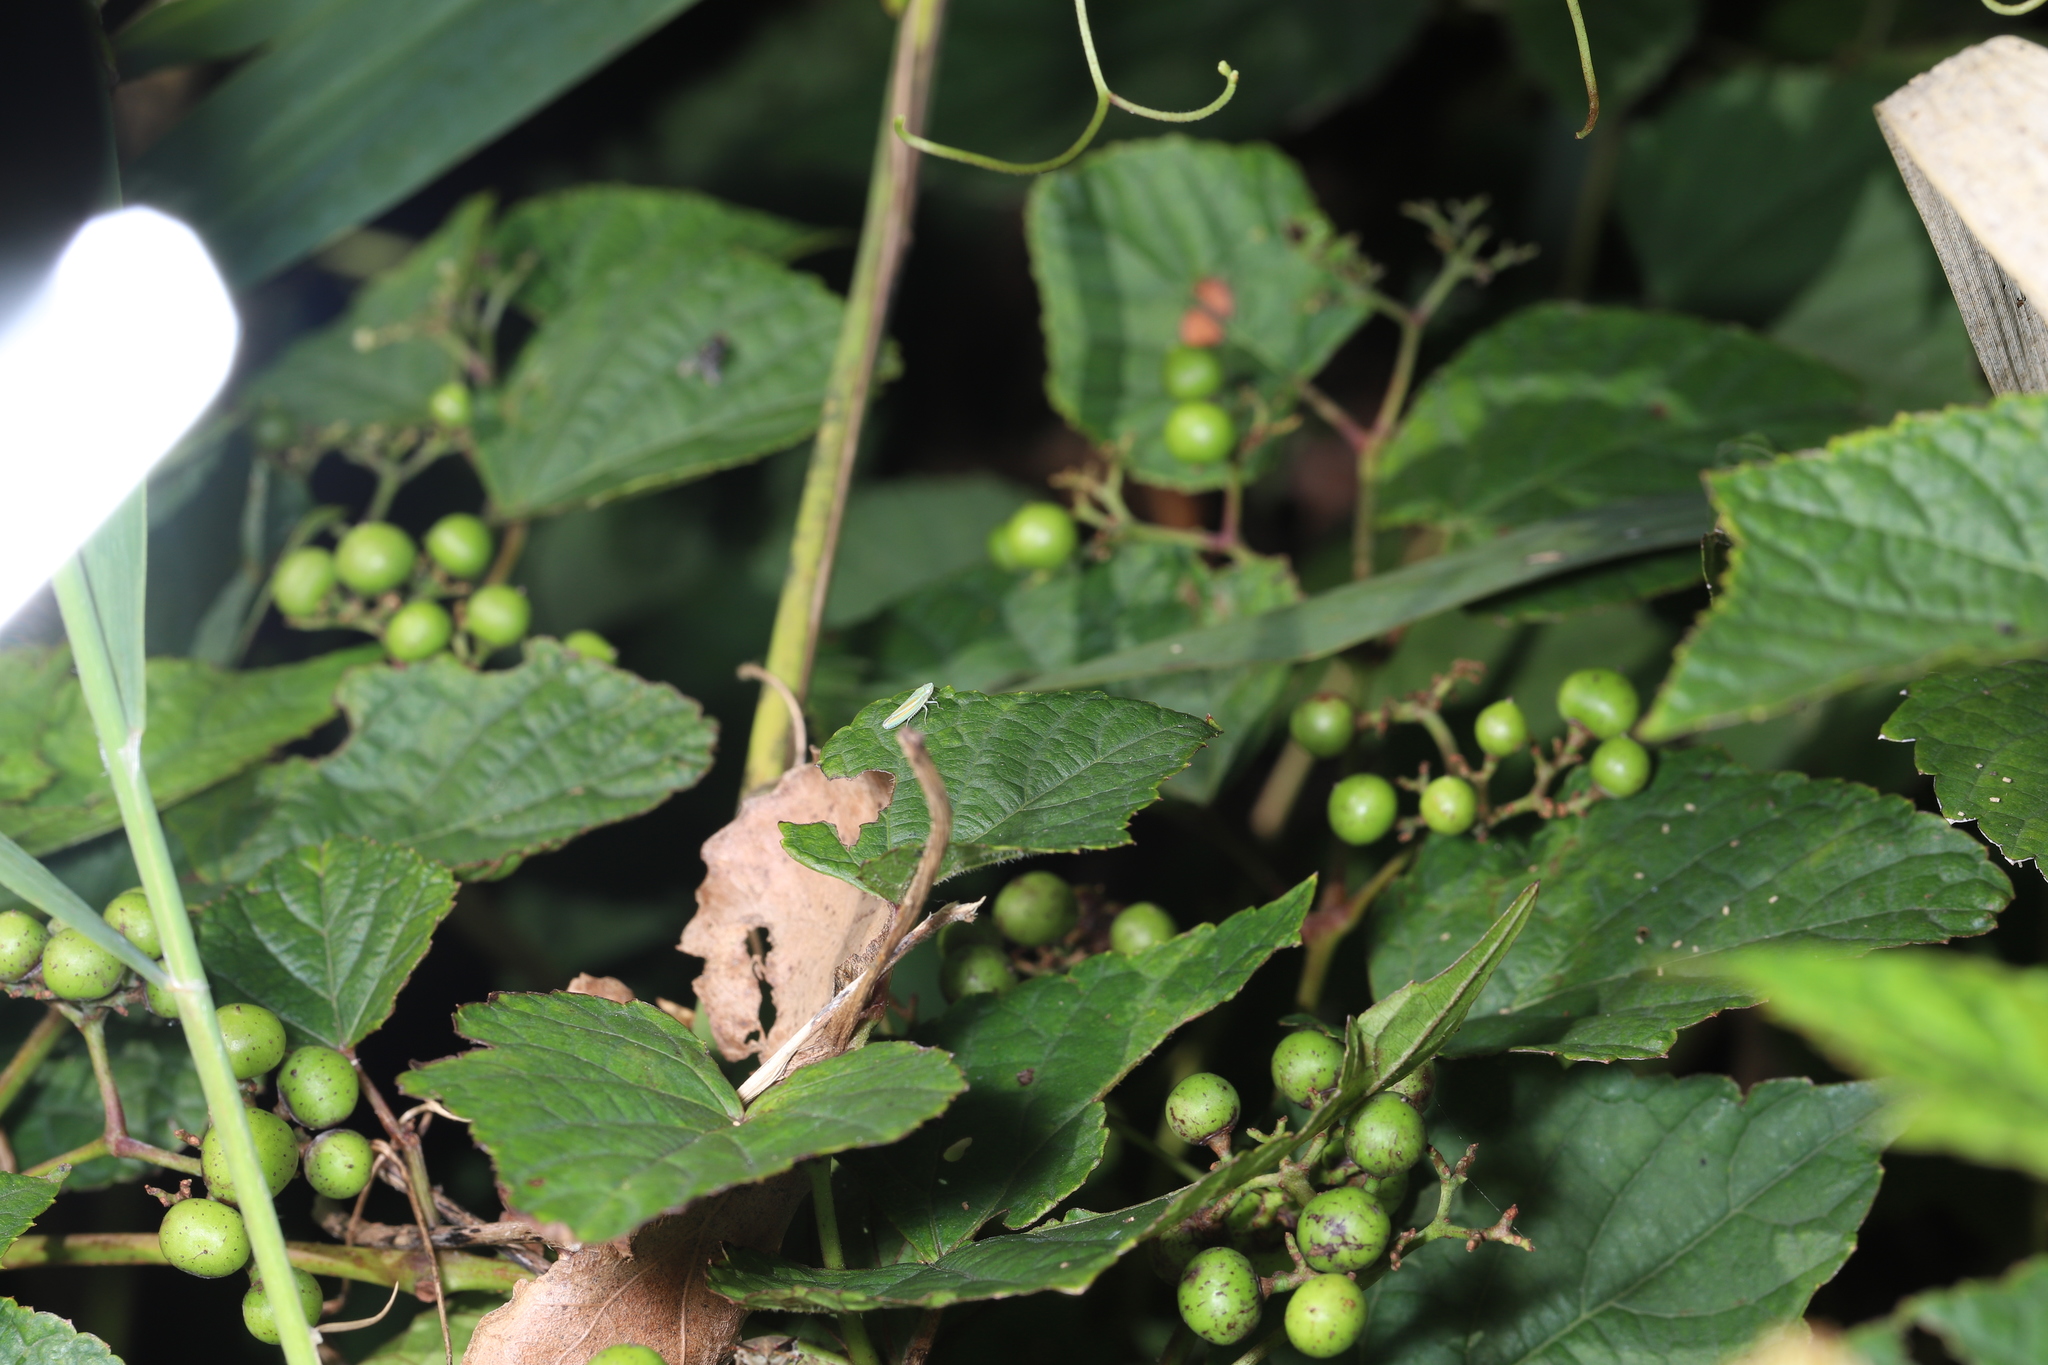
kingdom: Plantae
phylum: Tracheophyta
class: Magnoliopsida
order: Vitales
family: Vitaceae
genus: Ampelopsis
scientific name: Ampelopsis glandulosa
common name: Amur peppervine
